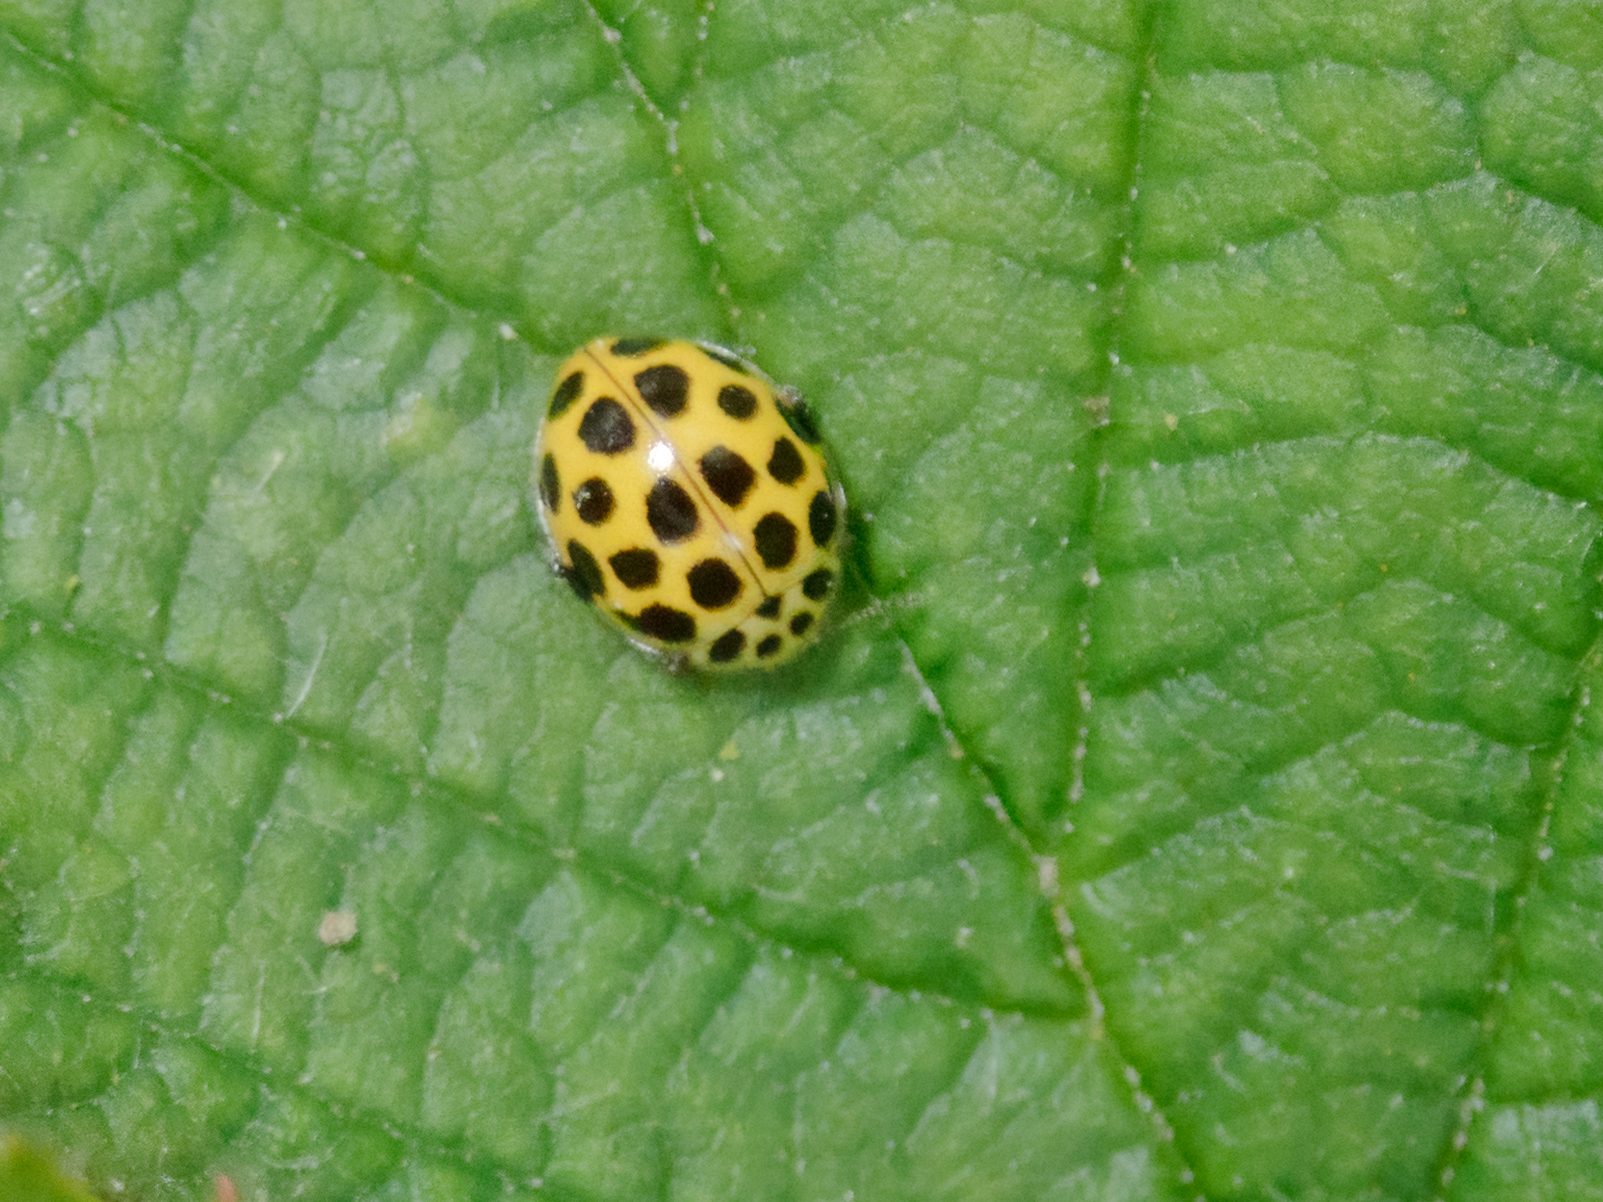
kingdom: Animalia
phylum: Arthropoda
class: Insecta
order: Coleoptera
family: Coccinellidae
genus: Psyllobora
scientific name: Psyllobora vigintiduopunctata
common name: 22-spot ladybird
